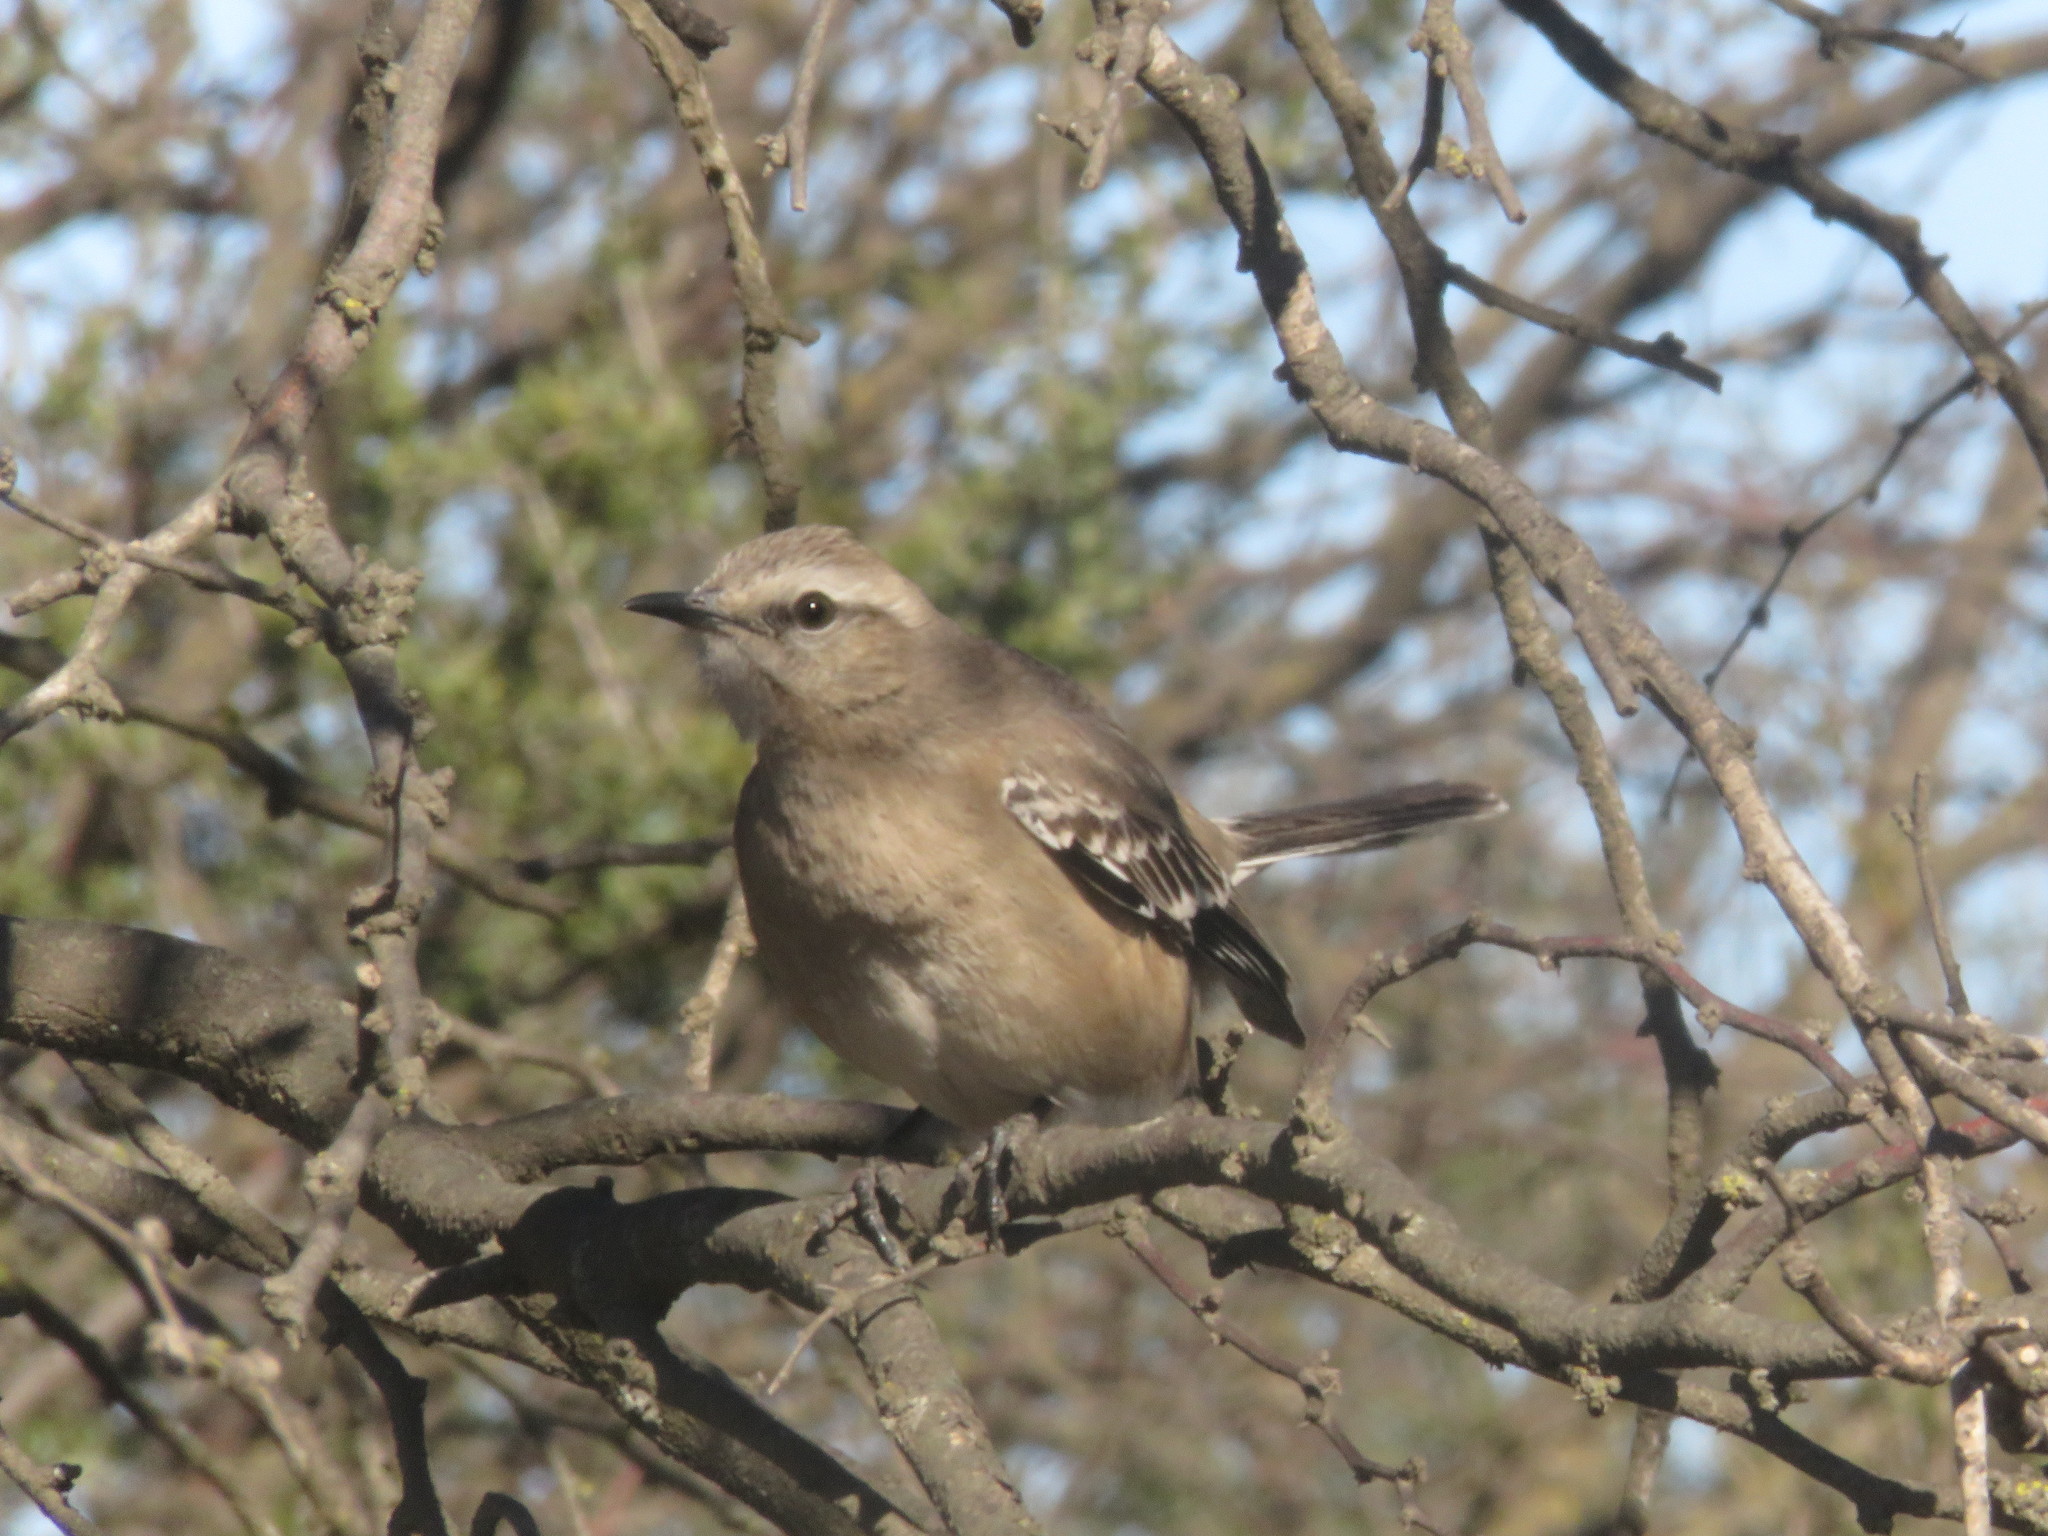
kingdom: Animalia
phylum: Chordata
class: Aves
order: Passeriformes
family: Mimidae
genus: Mimus
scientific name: Mimus patagonicus
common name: Patagonian mockingbird
